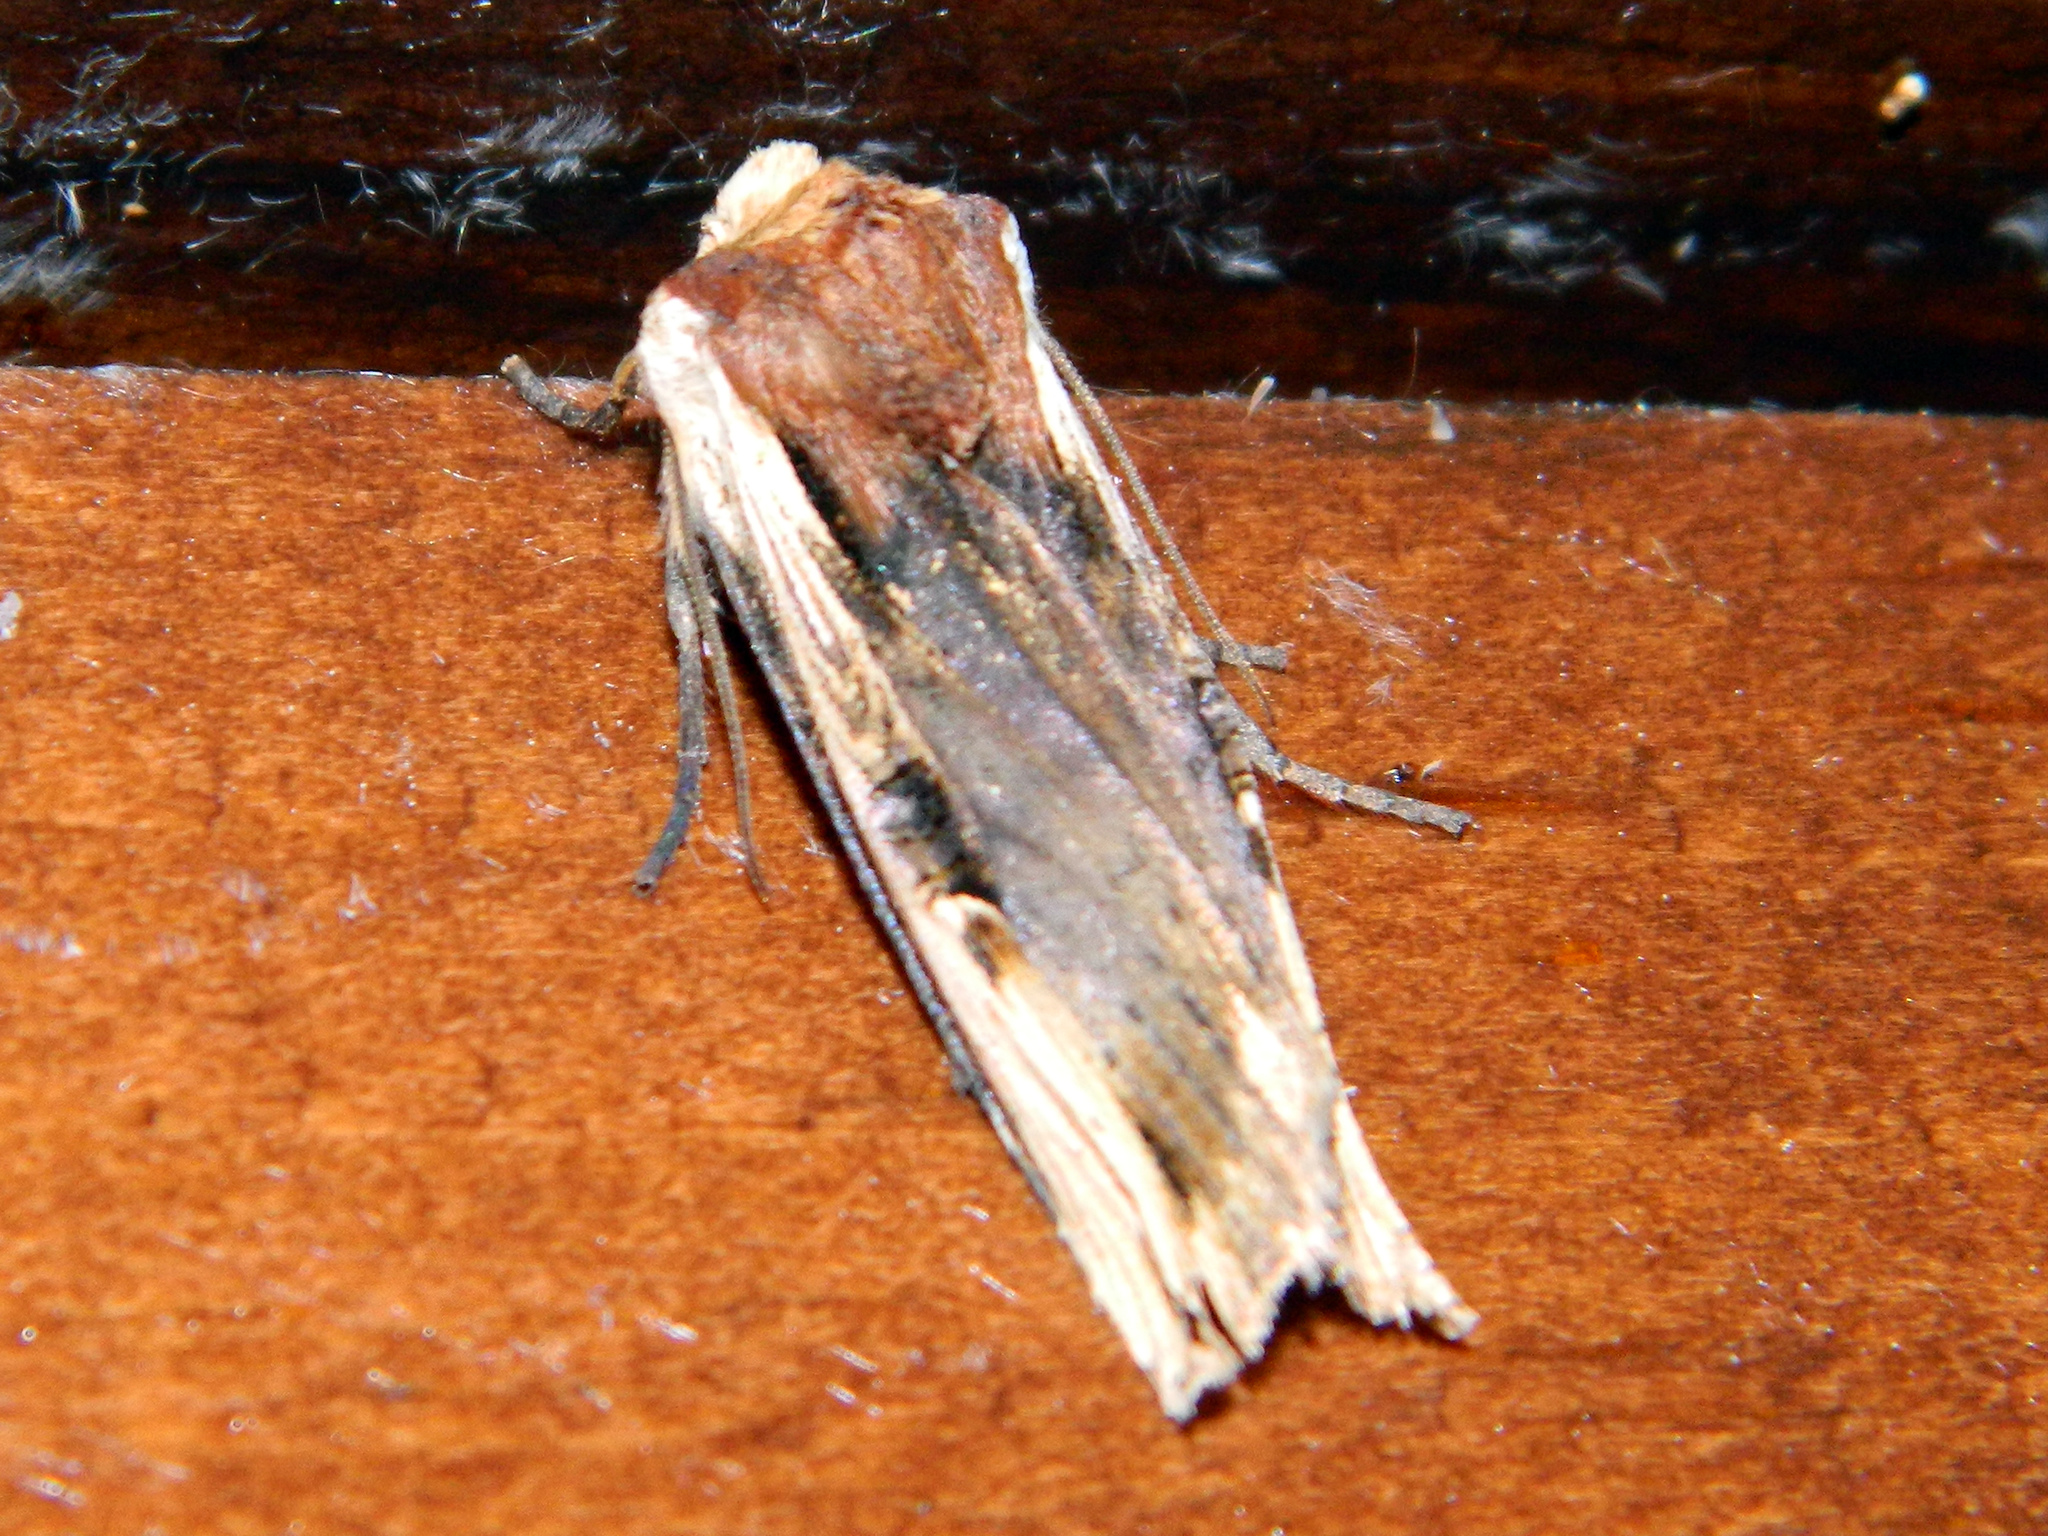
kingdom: Animalia
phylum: Arthropoda
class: Insecta
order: Lepidoptera
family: Noctuidae
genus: Xylena
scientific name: Xylena curvimacula
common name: Dot-and-dash swordgrass moth
